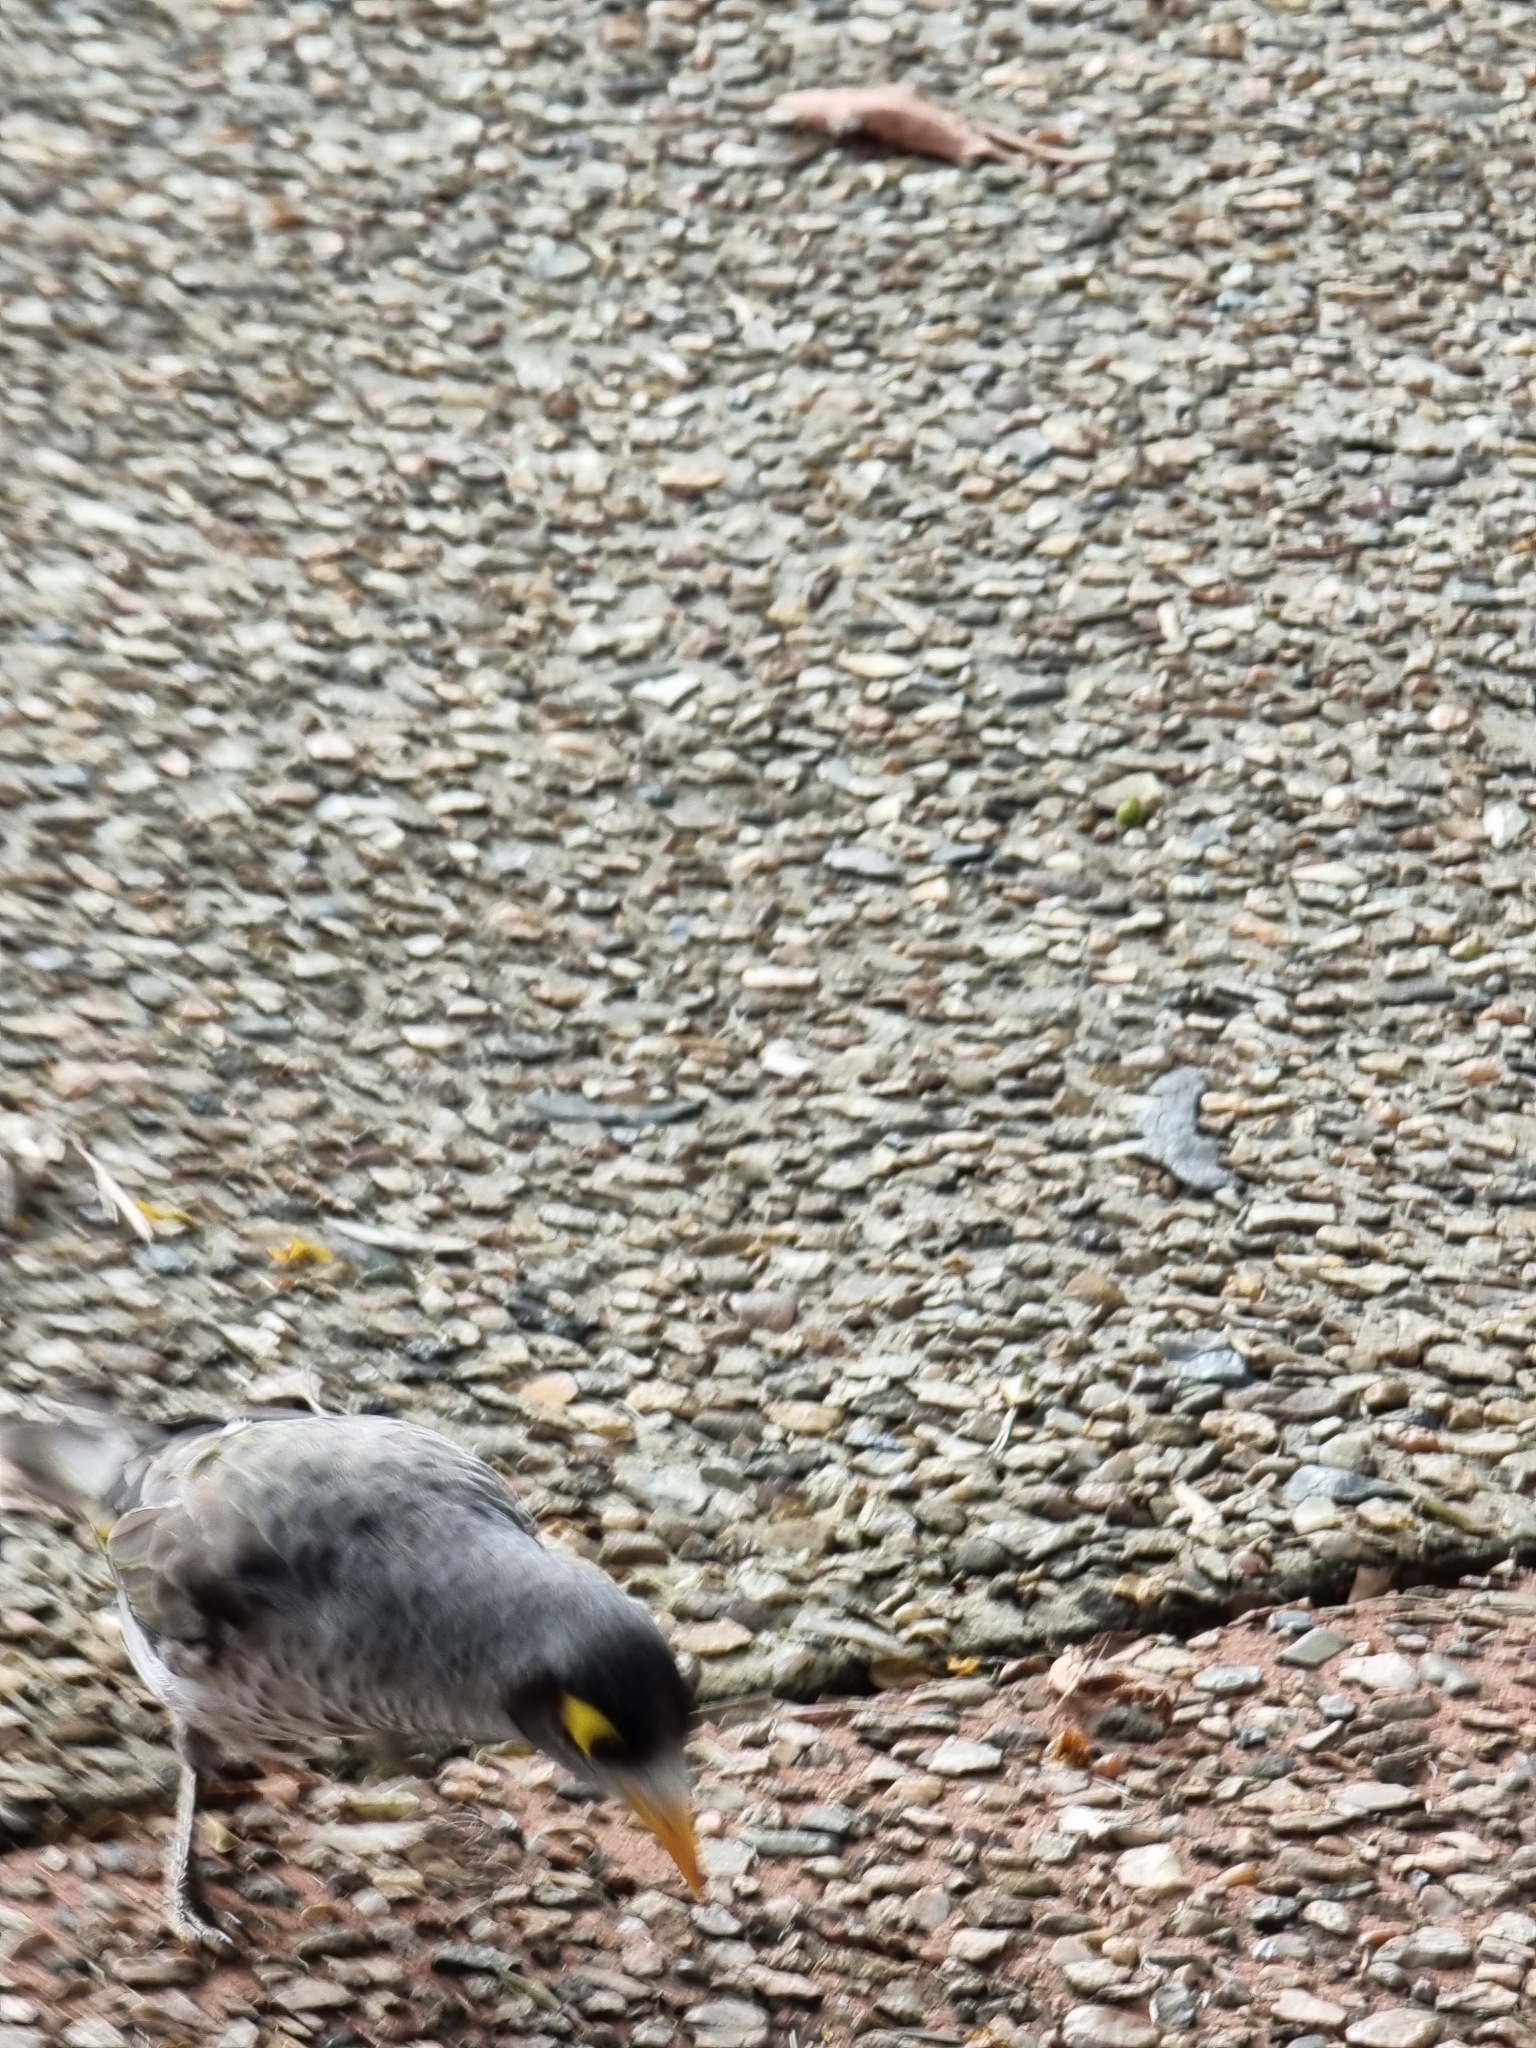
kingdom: Animalia
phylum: Chordata
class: Aves
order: Passeriformes
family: Meliphagidae
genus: Manorina
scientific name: Manorina melanocephala
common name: Noisy miner
